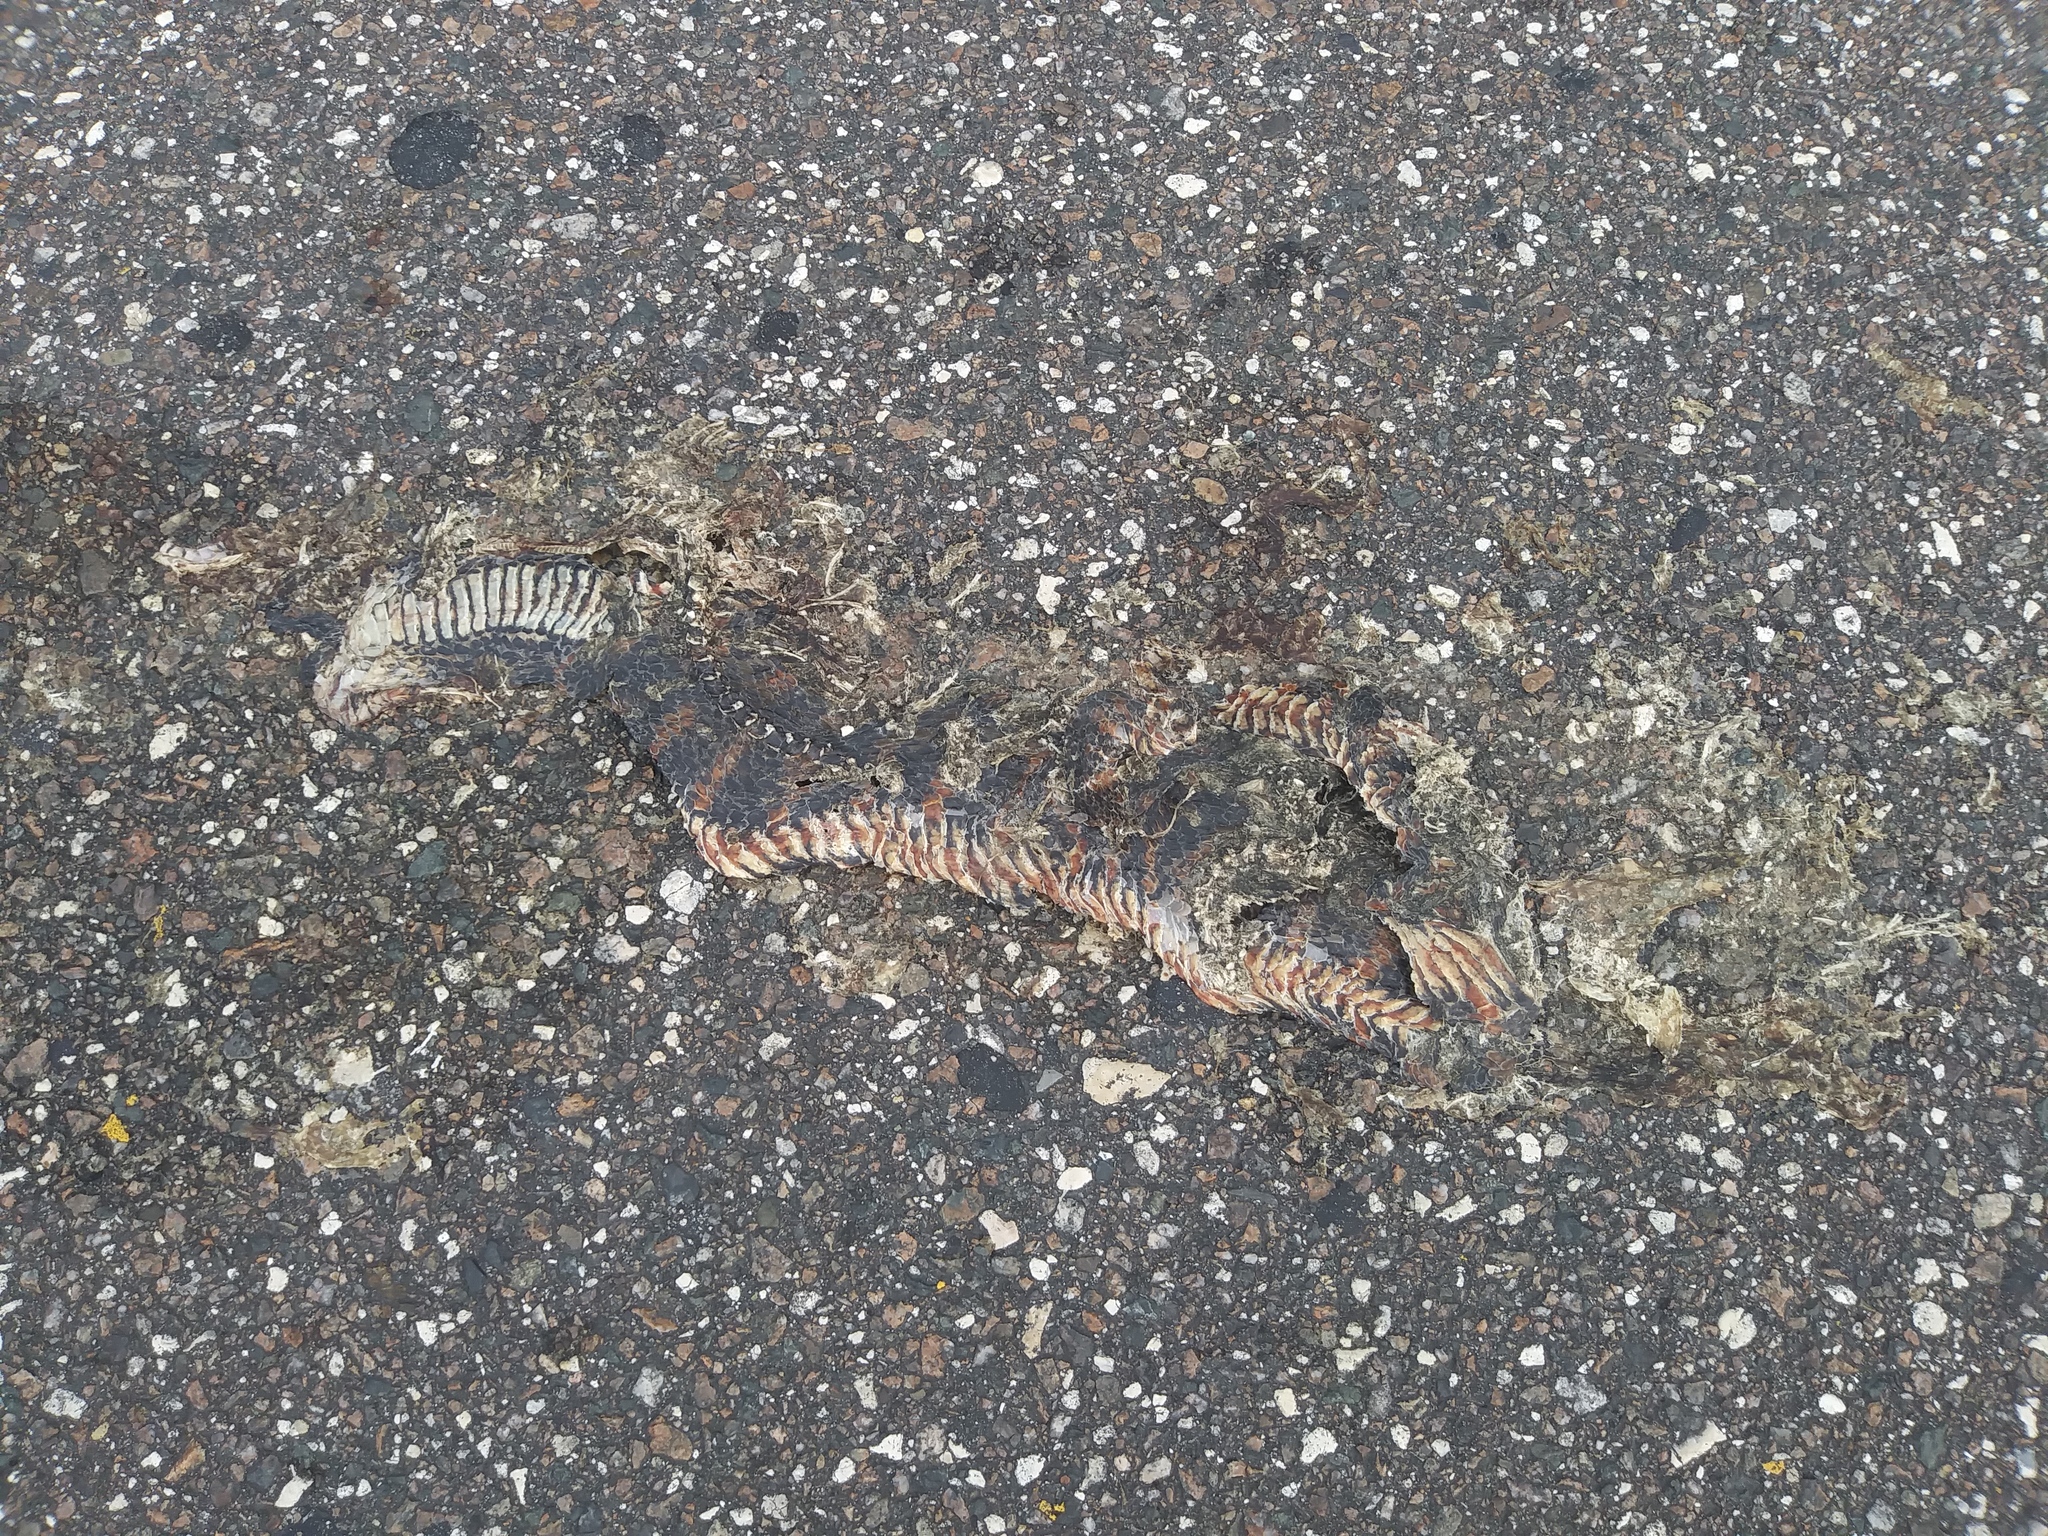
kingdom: Animalia
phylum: Chordata
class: Squamata
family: Colubridae
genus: Nerodia
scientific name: Nerodia fasciata
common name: Southern water snake
